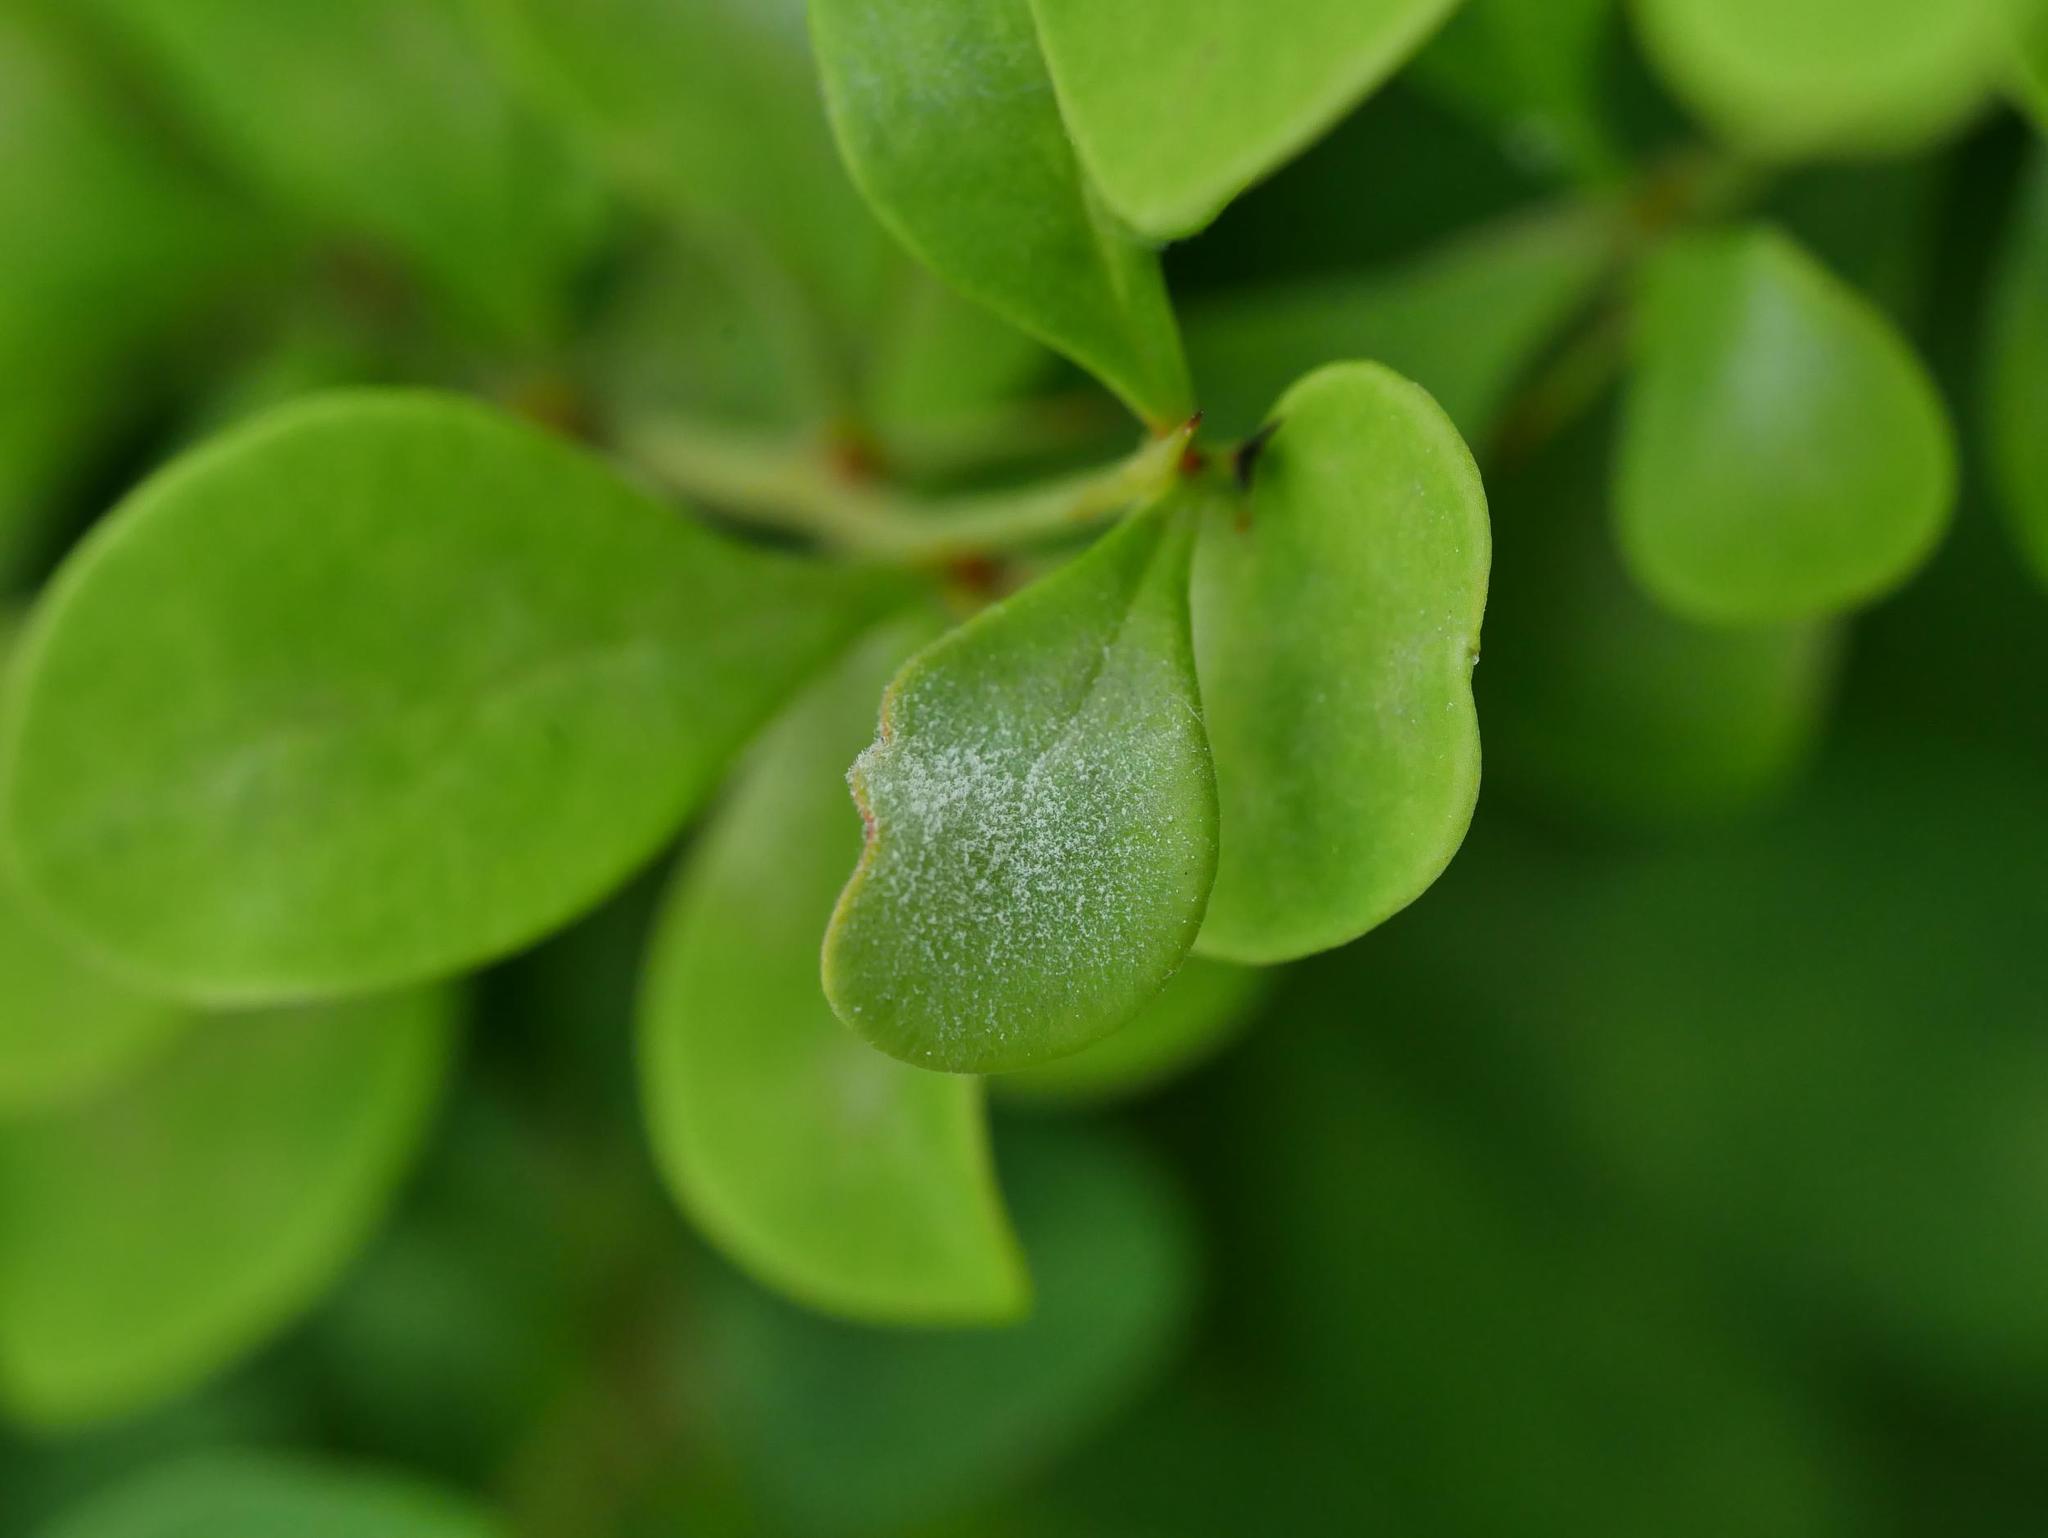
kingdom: Fungi
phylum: Ascomycota
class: Leotiomycetes
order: Helotiales
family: Erysiphaceae
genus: Erysiphe
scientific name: Erysiphe berberidis
